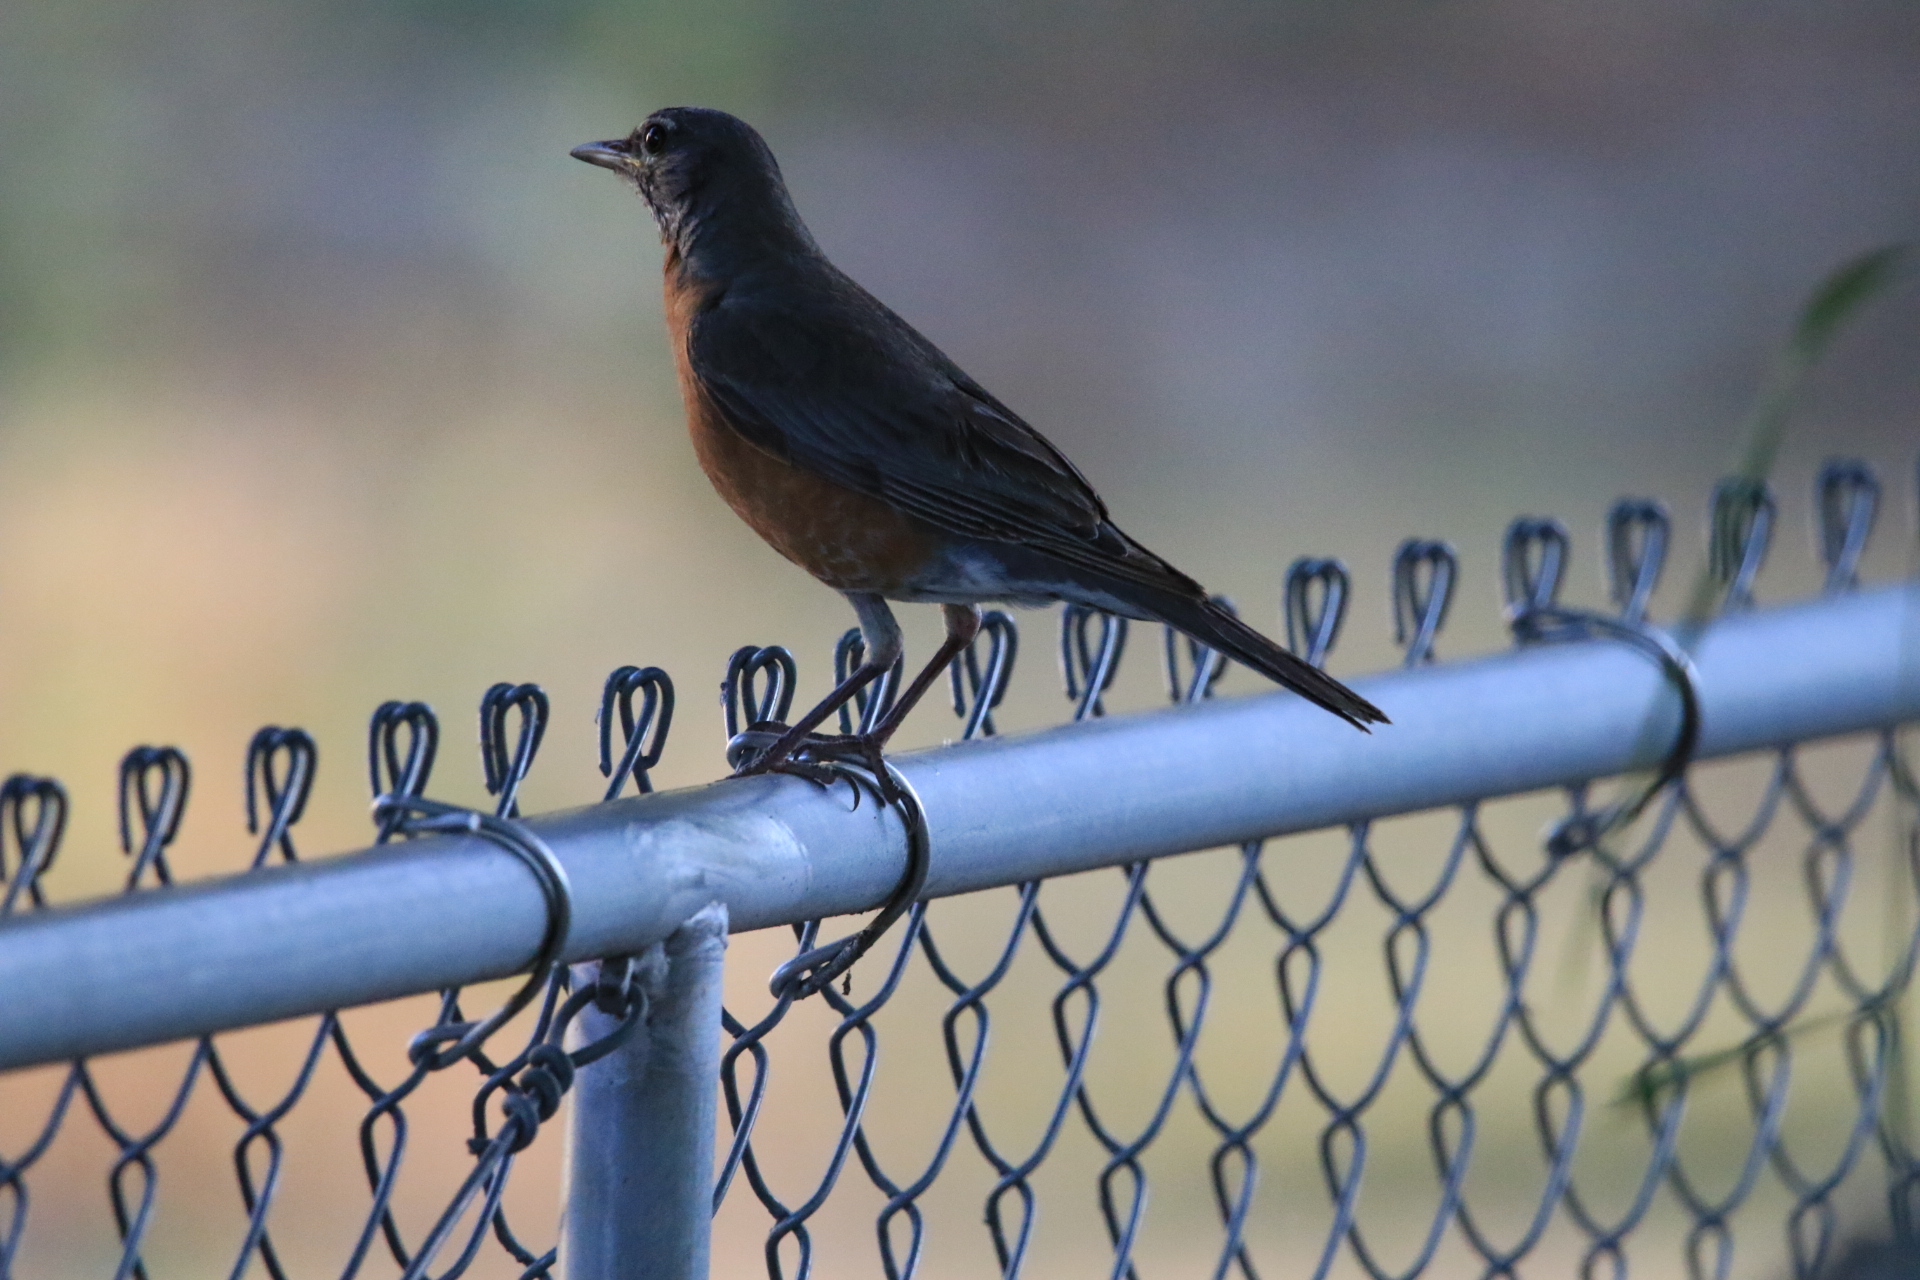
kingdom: Animalia
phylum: Chordata
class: Aves
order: Passeriformes
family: Turdidae
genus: Turdus
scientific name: Turdus migratorius
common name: American robin
